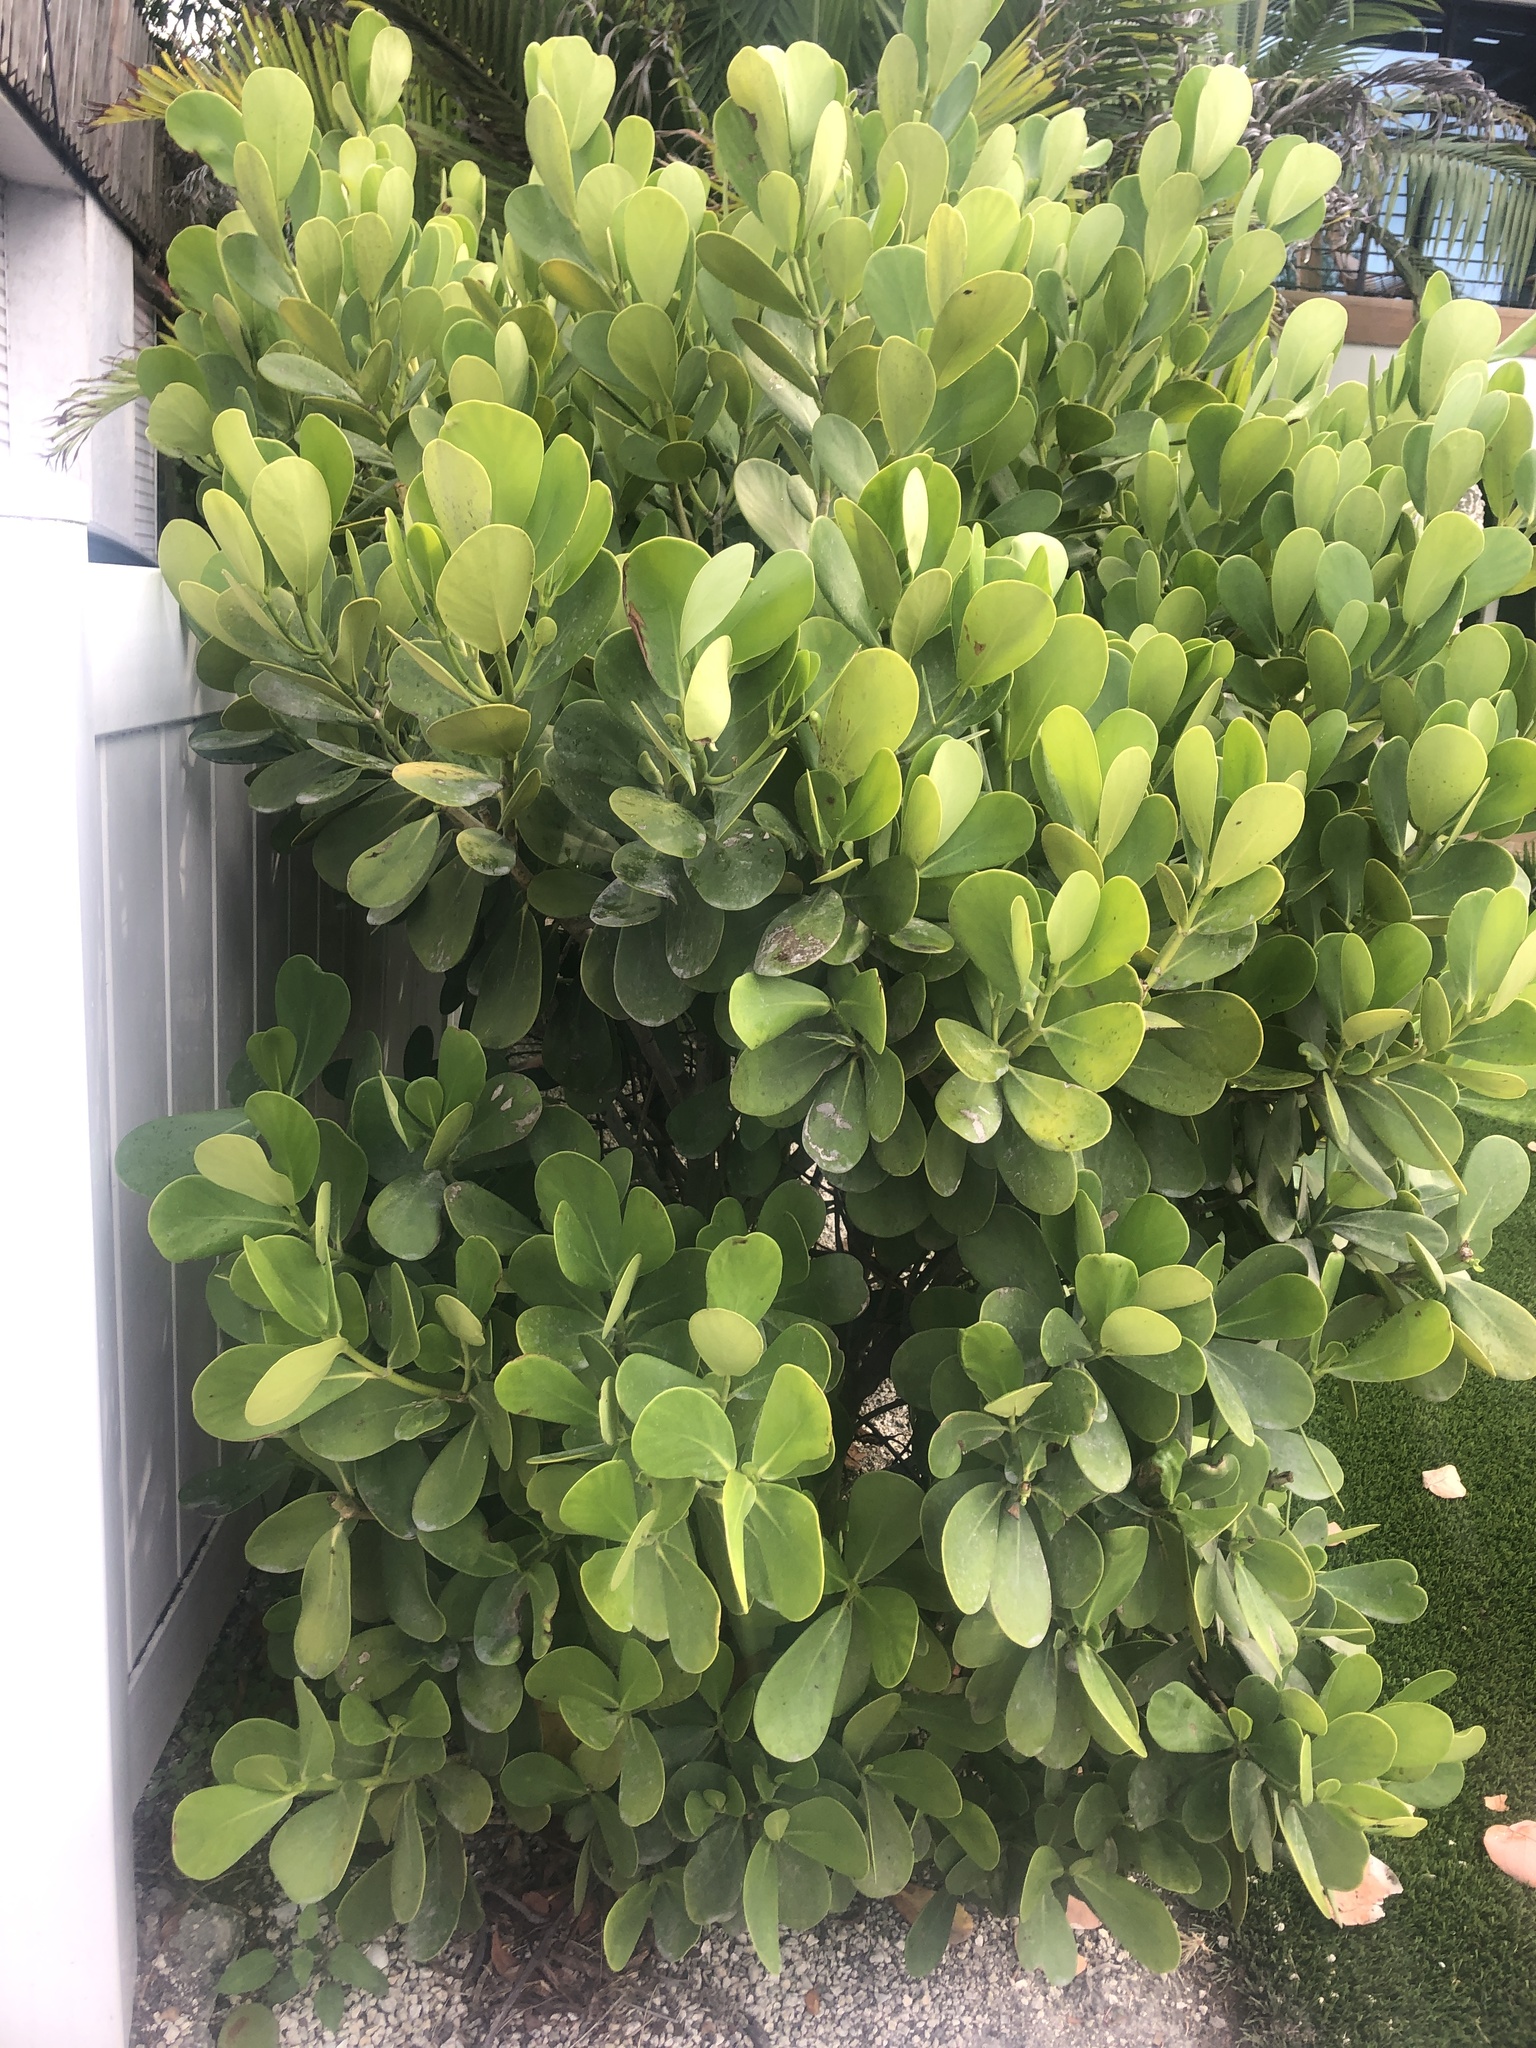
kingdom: Plantae
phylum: Tracheophyta
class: Magnoliopsida
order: Malpighiales
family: Clusiaceae
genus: Clusia
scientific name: Clusia rosea
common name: Scotch attorney
